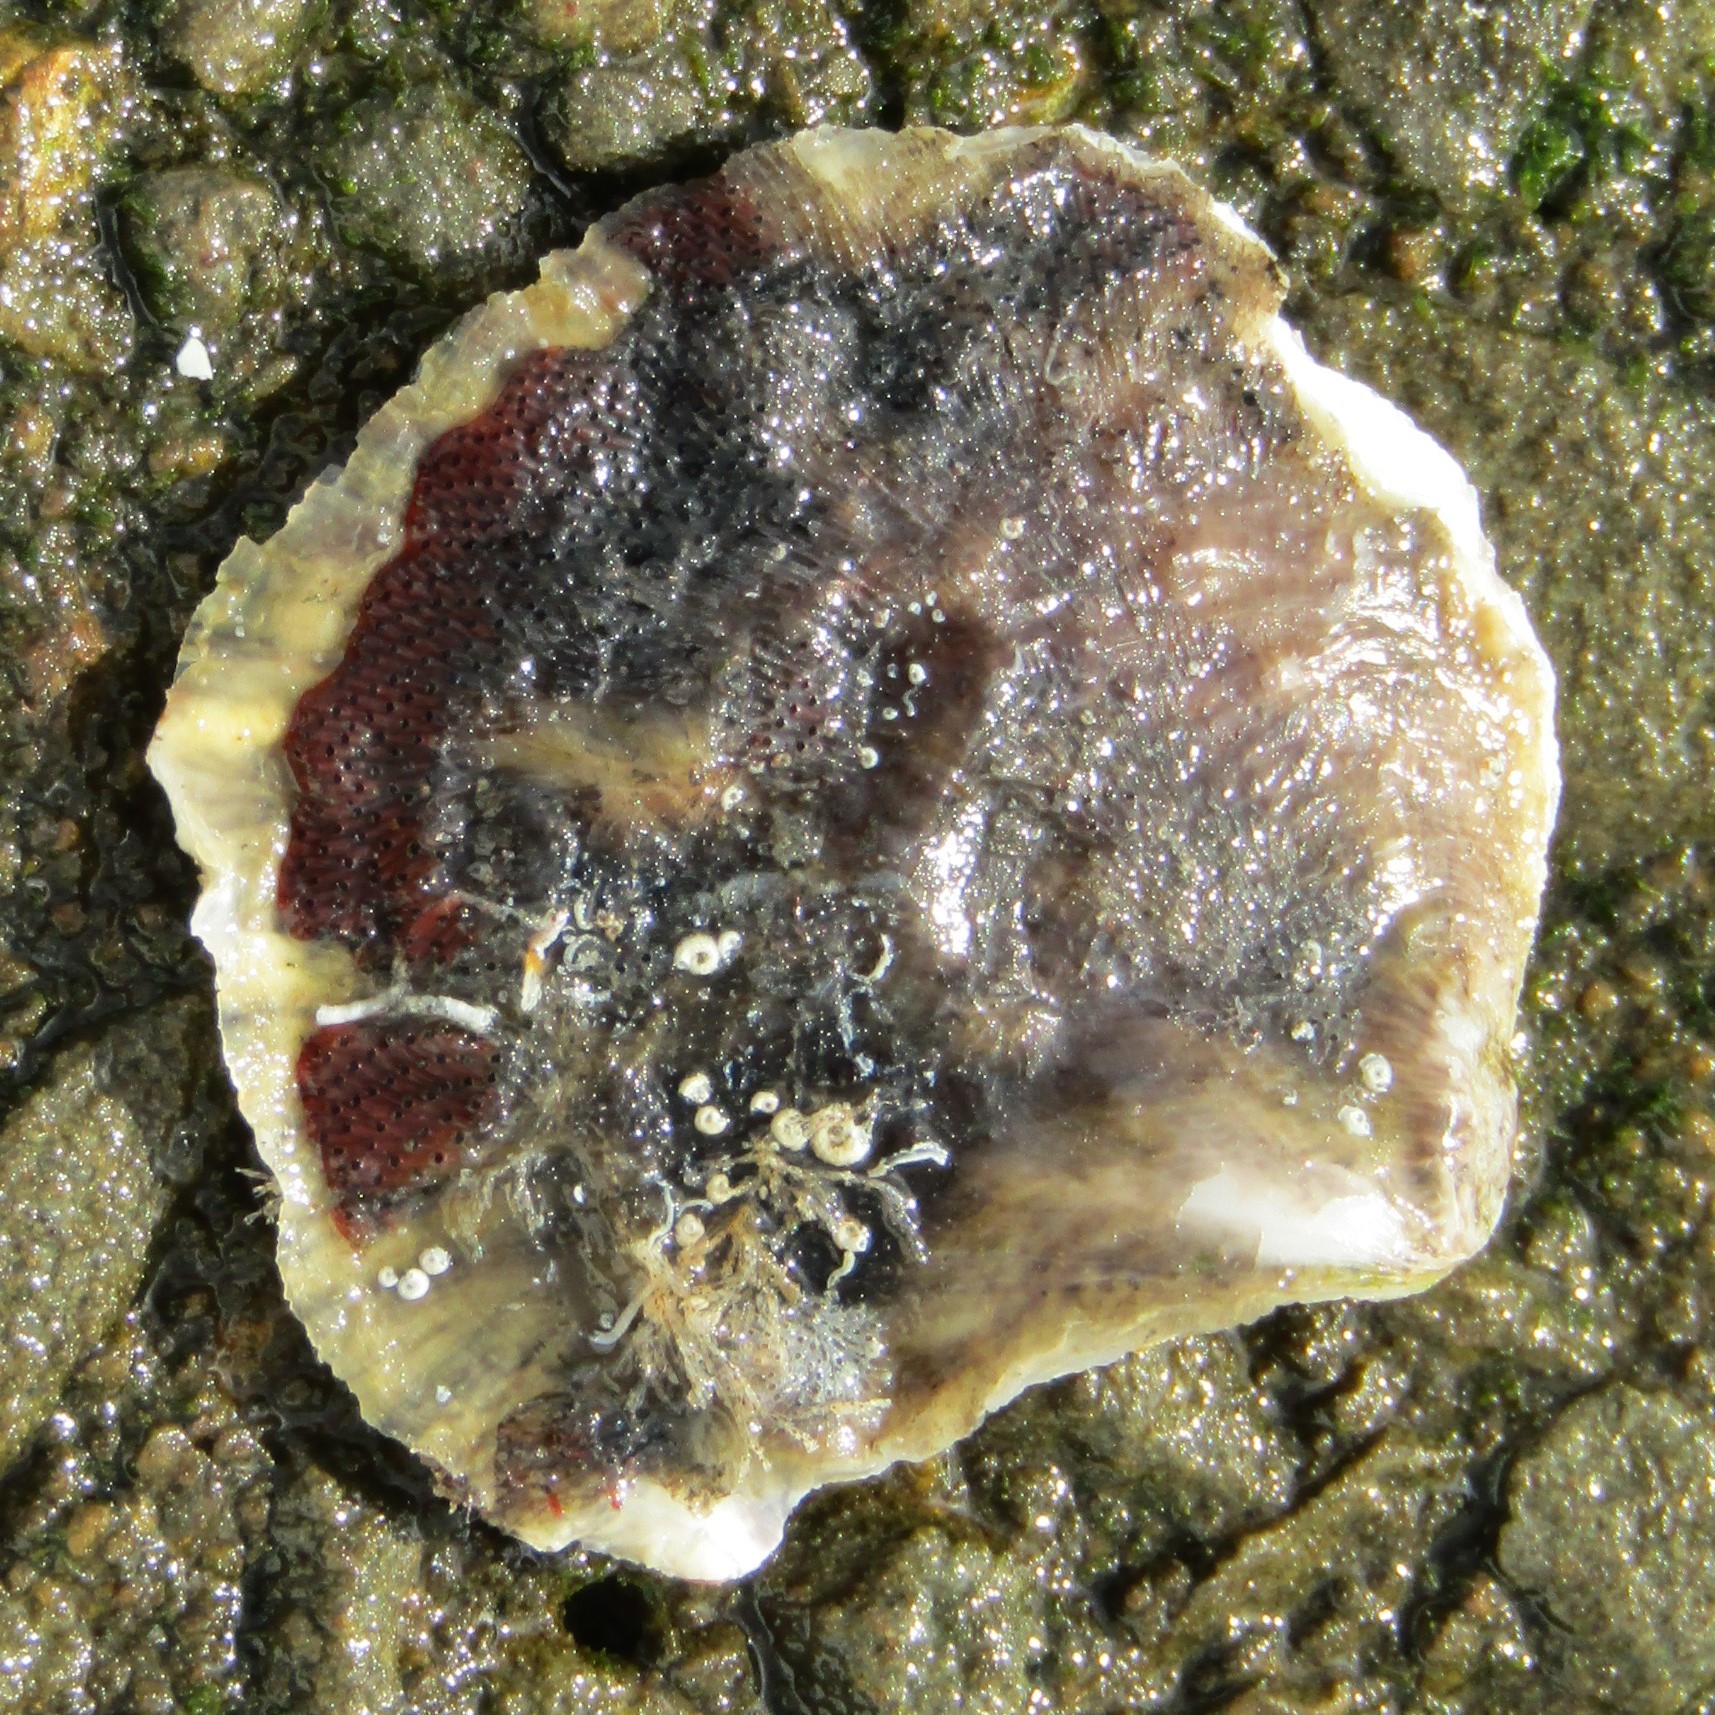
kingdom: Animalia
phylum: Mollusca
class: Bivalvia
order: Ostreida
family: Ostreidae
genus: Ostrea
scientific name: Ostrea chilensis
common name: Chilean oyster
